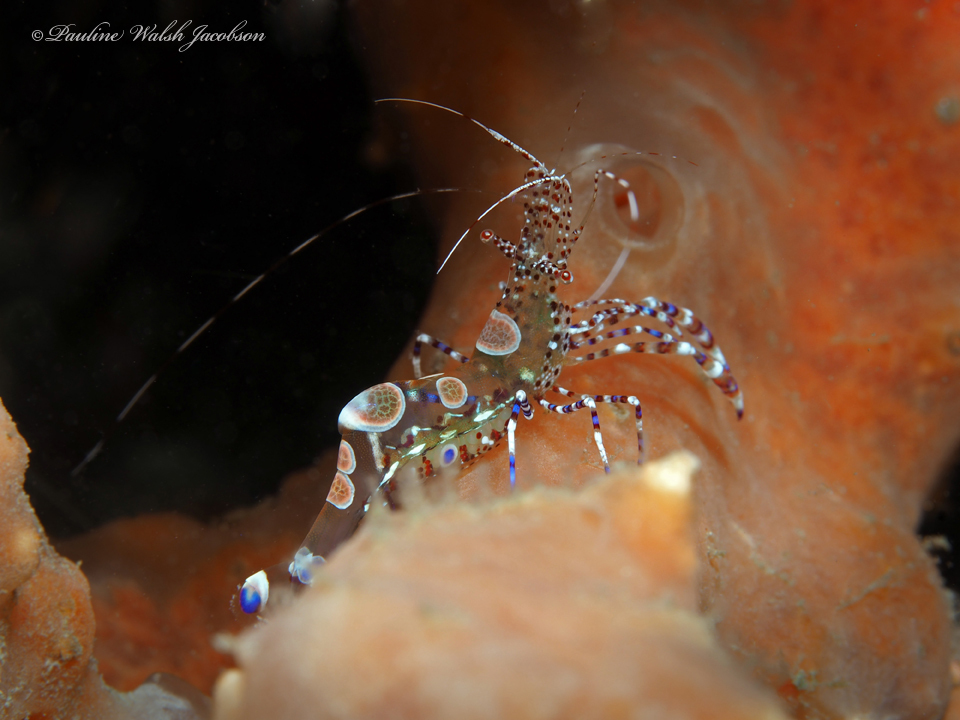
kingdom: Animalia
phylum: Arthropoda
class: Malacostraca
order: Decapoda
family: Palaemonidae
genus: Periclimenes
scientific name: Periclimenes yucatanicus
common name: Spotted cleaning shrimp
